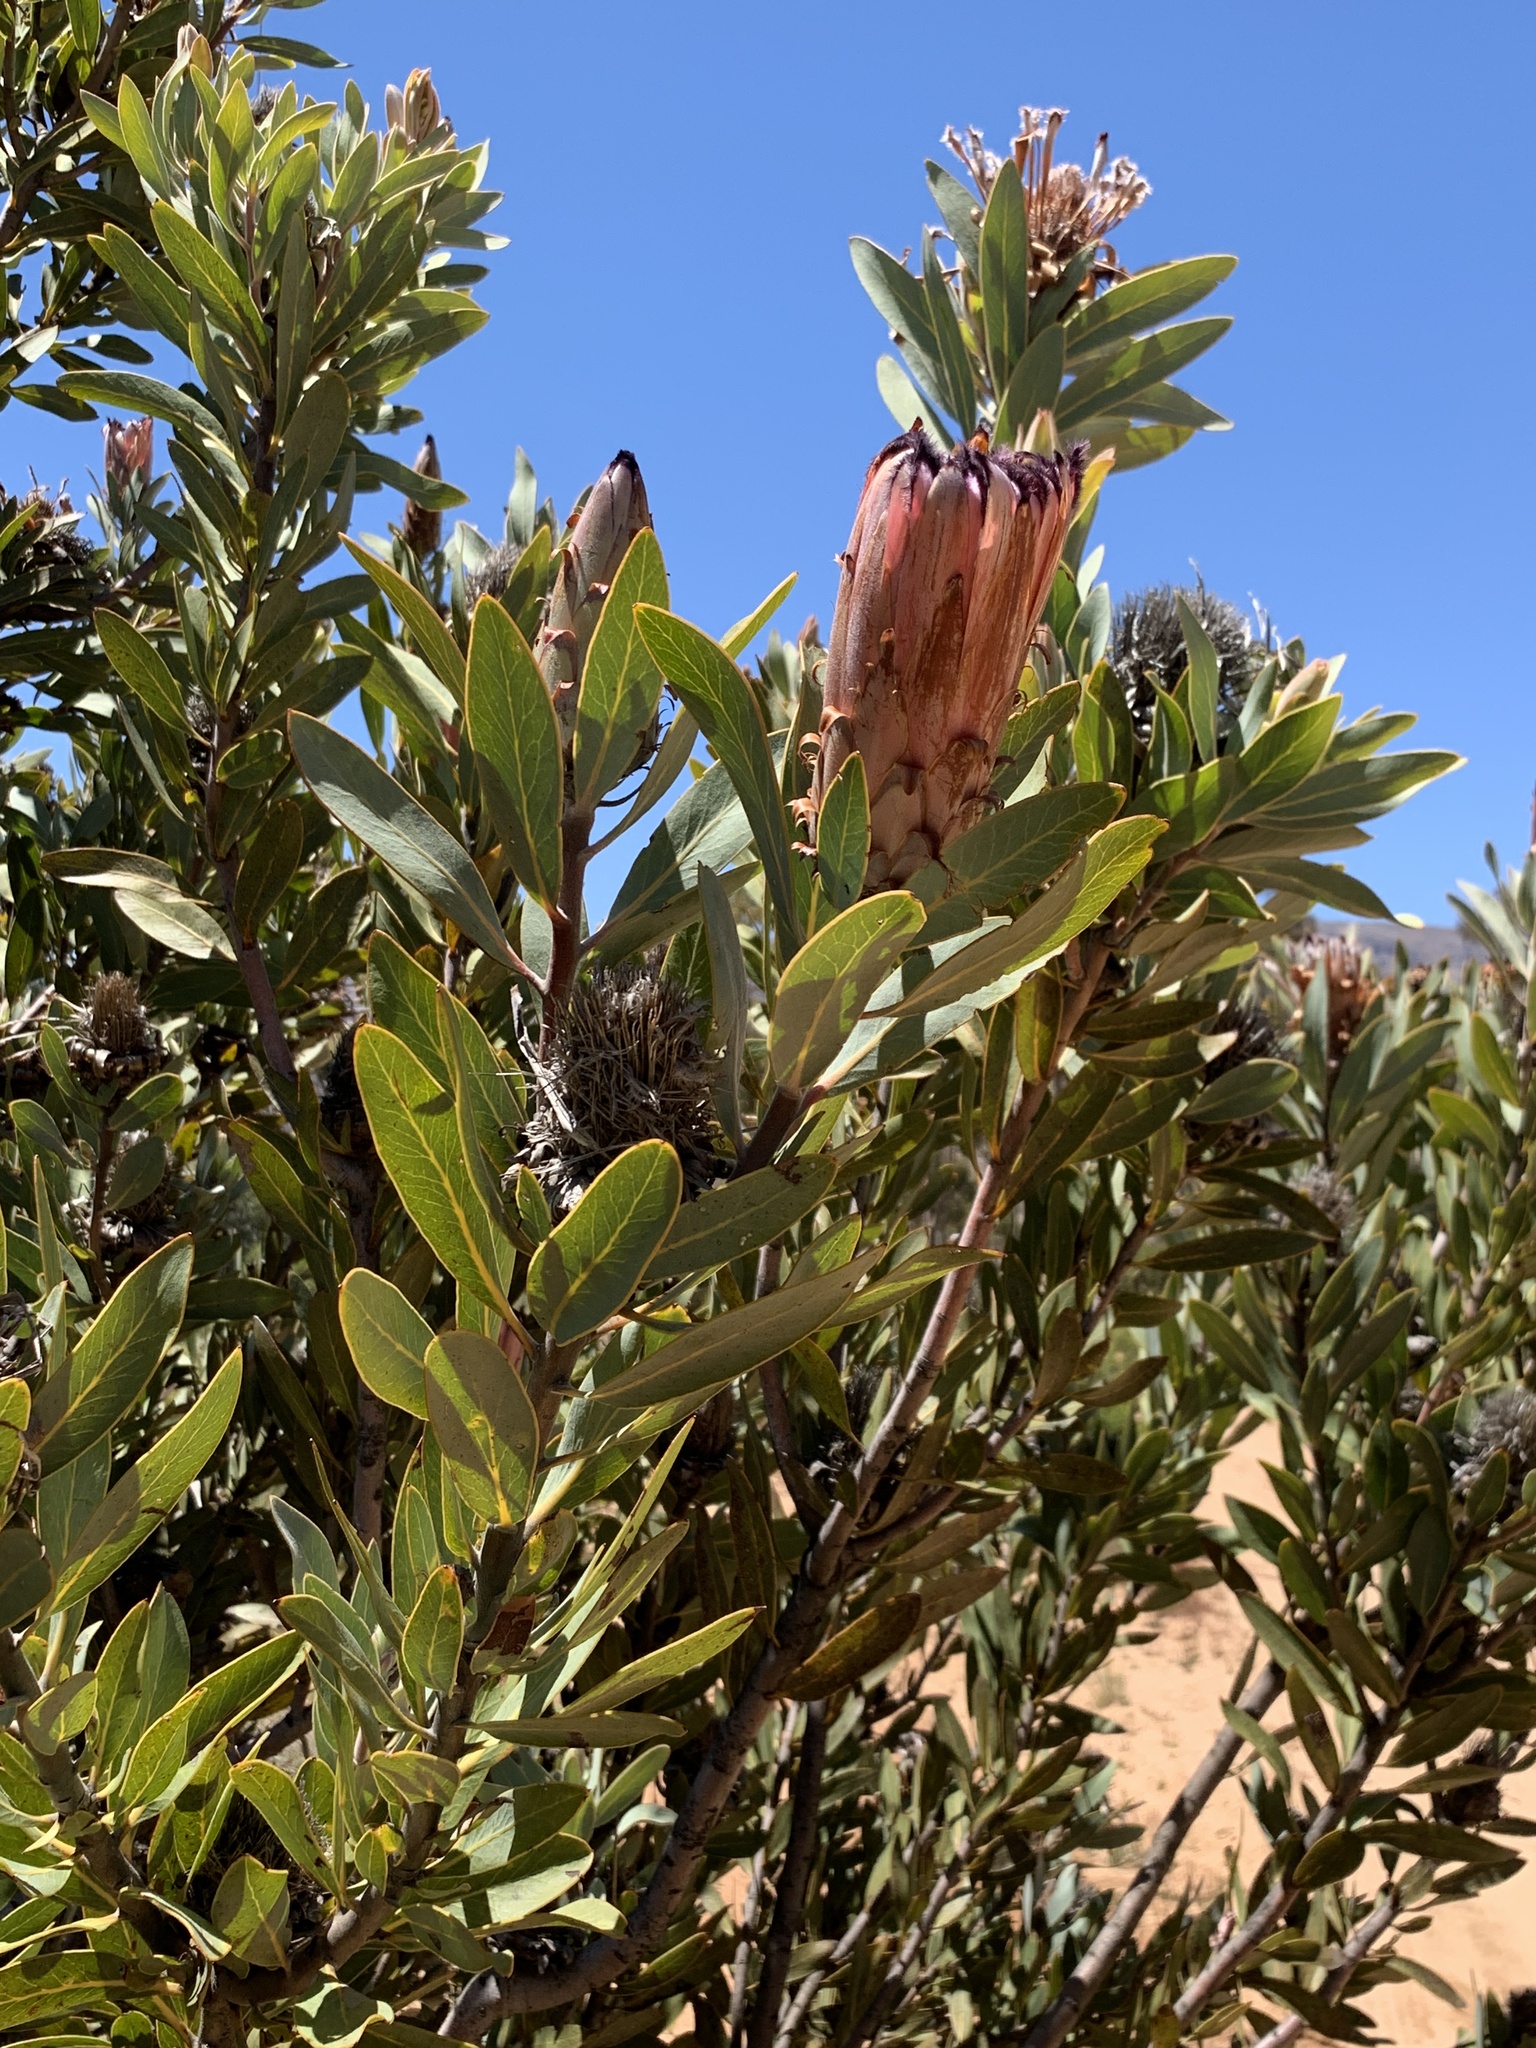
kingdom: Plantae
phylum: Tracheophyta
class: Magnoliopsida
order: Proteales
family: Proteaceae
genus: Protea
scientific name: Protea laurifolia
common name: Grey-leaf sugarbsh
